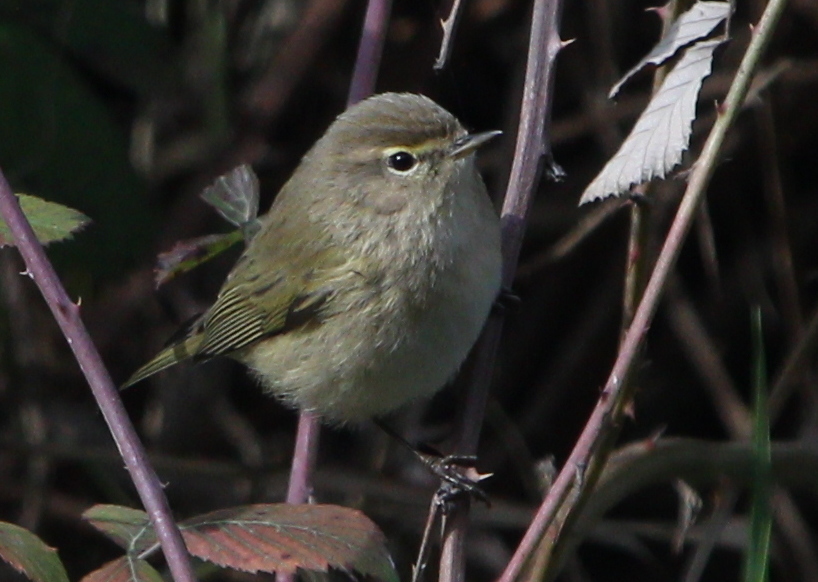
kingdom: Animalia
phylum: Chordata
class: Aves
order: Passeriformes
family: Phylloscopidae
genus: Phylloscopus
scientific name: Phylloscopus collybita
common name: Common chiffchaff
